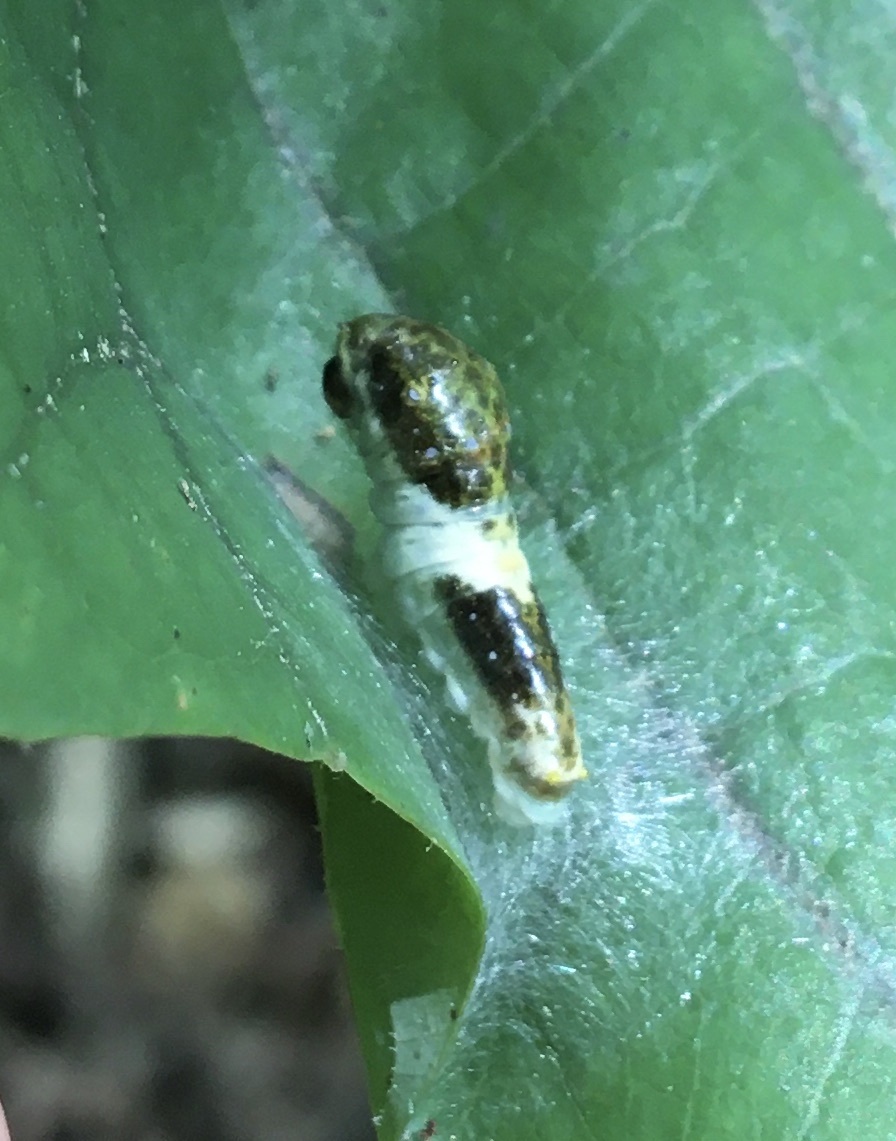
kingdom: Animalia
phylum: Arthropoda
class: Insecta
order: Lepidoptera
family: Papilionidae
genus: Papilio
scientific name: Papilio glaucus
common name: Tiger swallowtail
